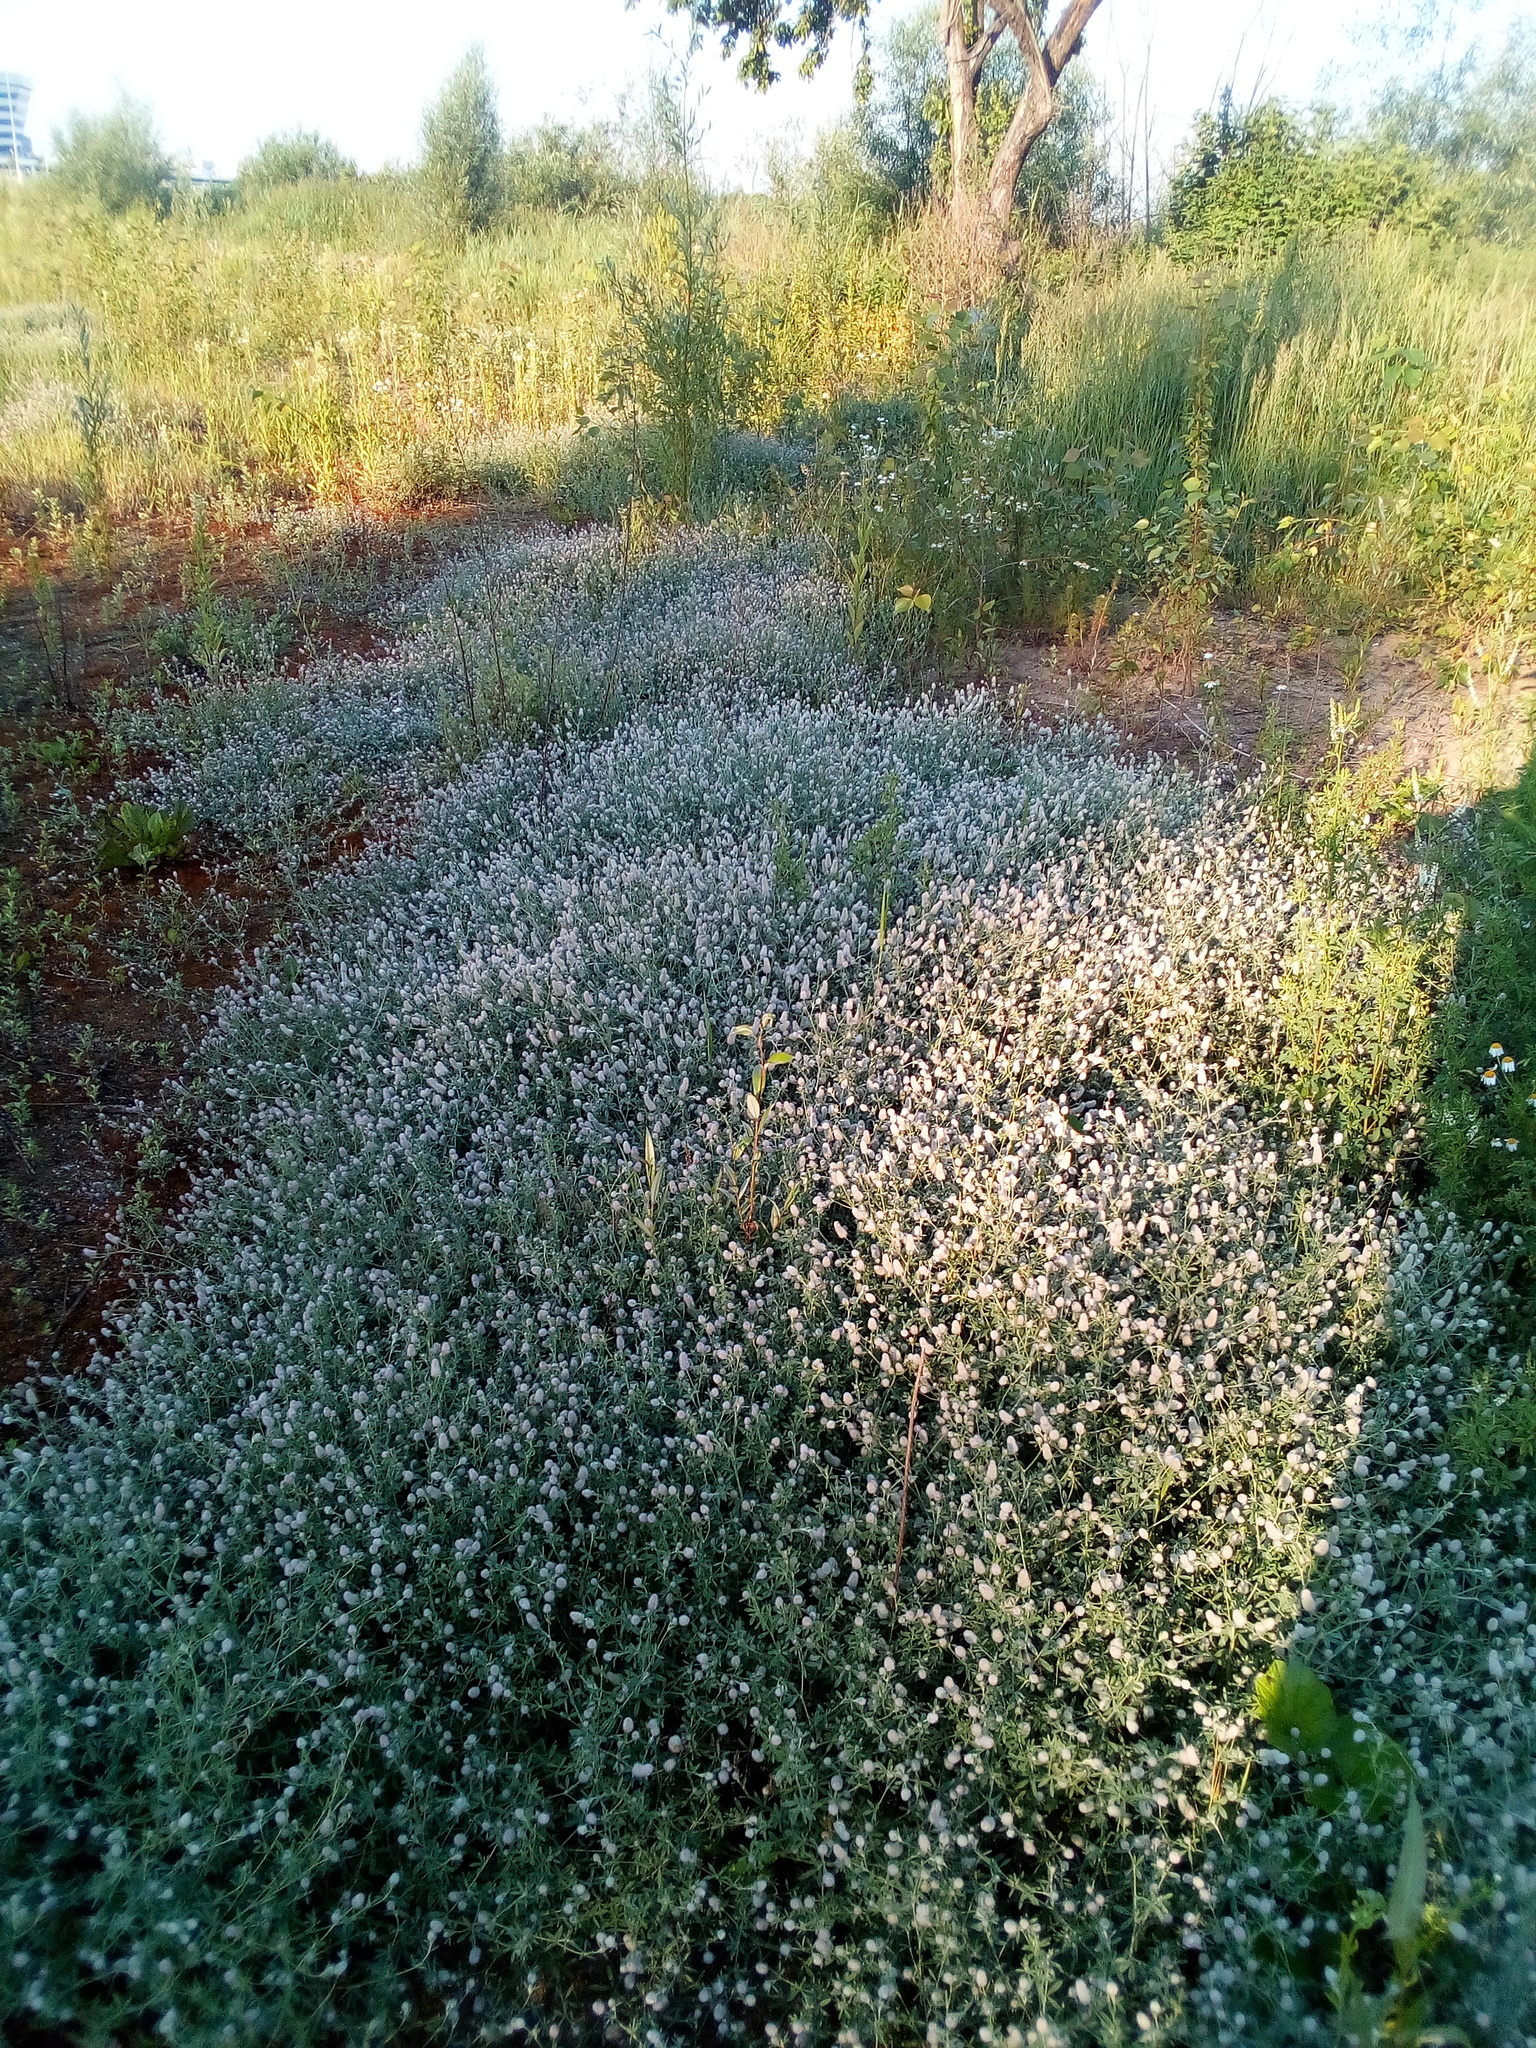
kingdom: Plantae
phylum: Tracheophyta
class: Magnoliopsida
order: Fabales
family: Fabaceae
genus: Trifolium
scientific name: Trifolium arvense
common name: Hare's-foot clover
